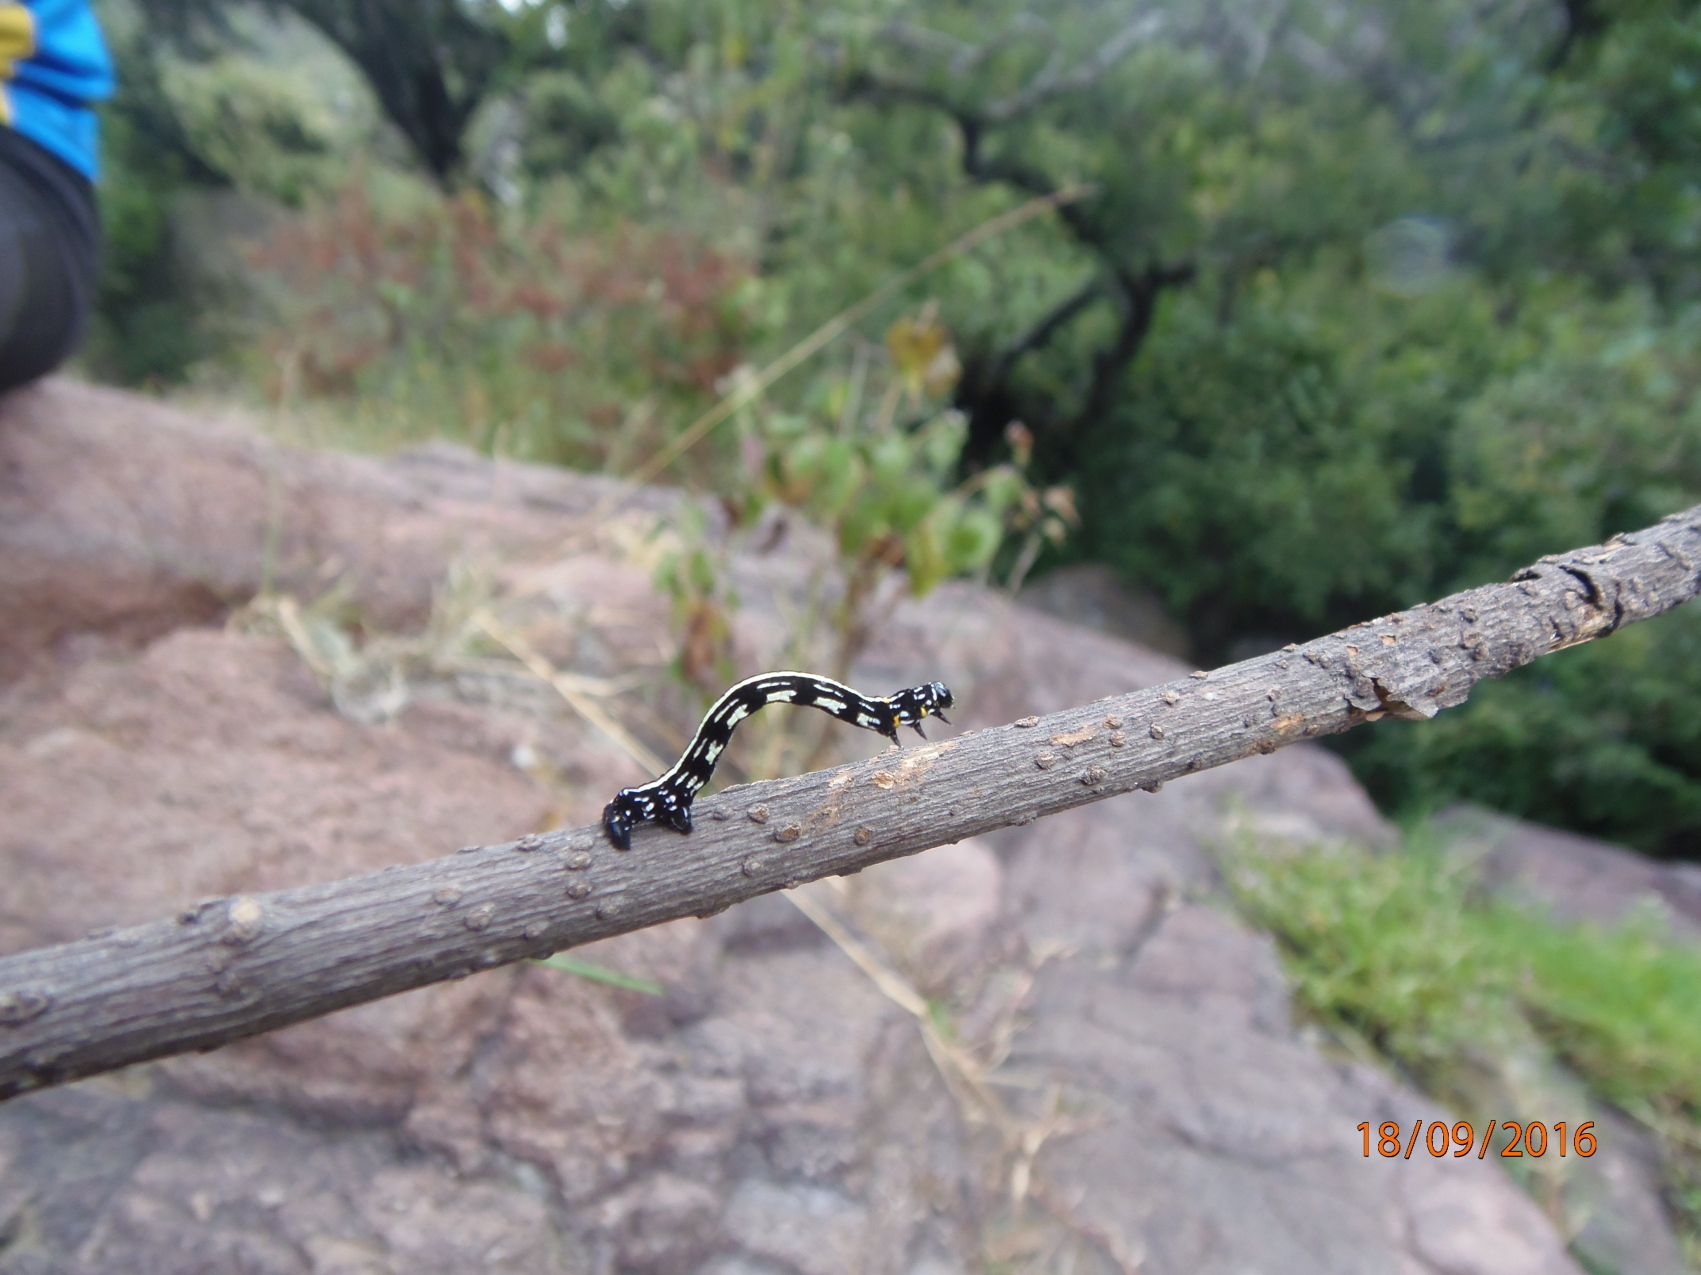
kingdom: Animalia
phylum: Arthropoda
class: Insecta
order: Lepidoptera
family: Geometridae
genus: Acronyctodes
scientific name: Acronyctodes mexicanaria
